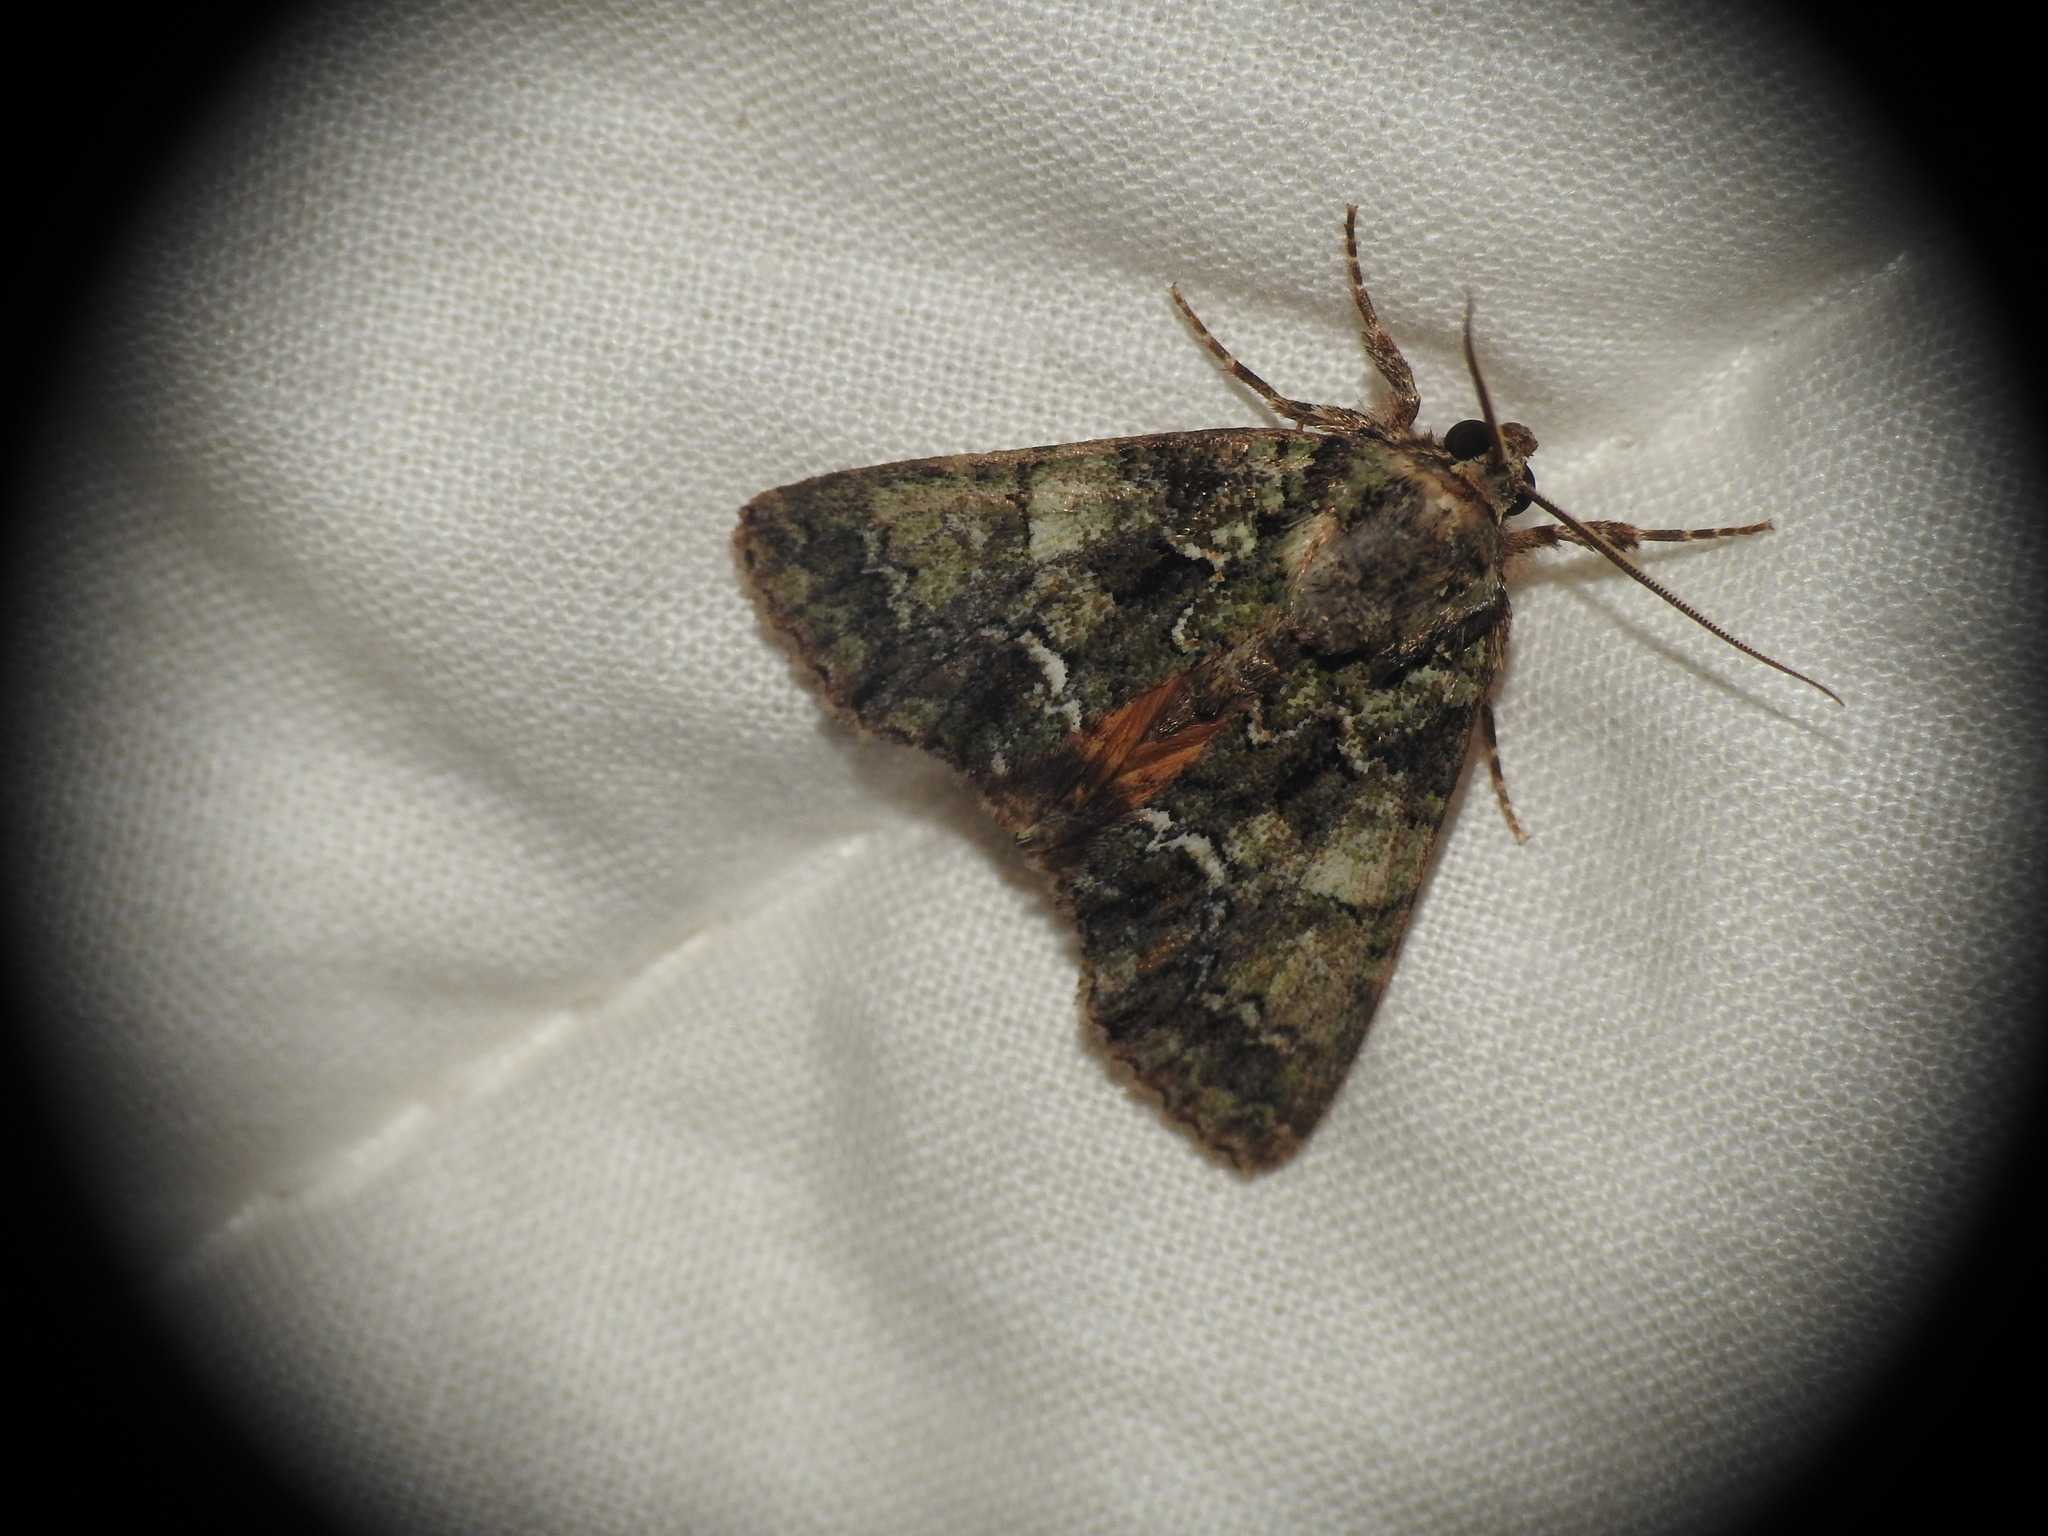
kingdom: Animalia
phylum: Arthropoda
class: Insecta
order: Lepidoptera
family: Noctuidae
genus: Polyphaenis
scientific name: Polyphaenis sericata
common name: Guernsey underwing
